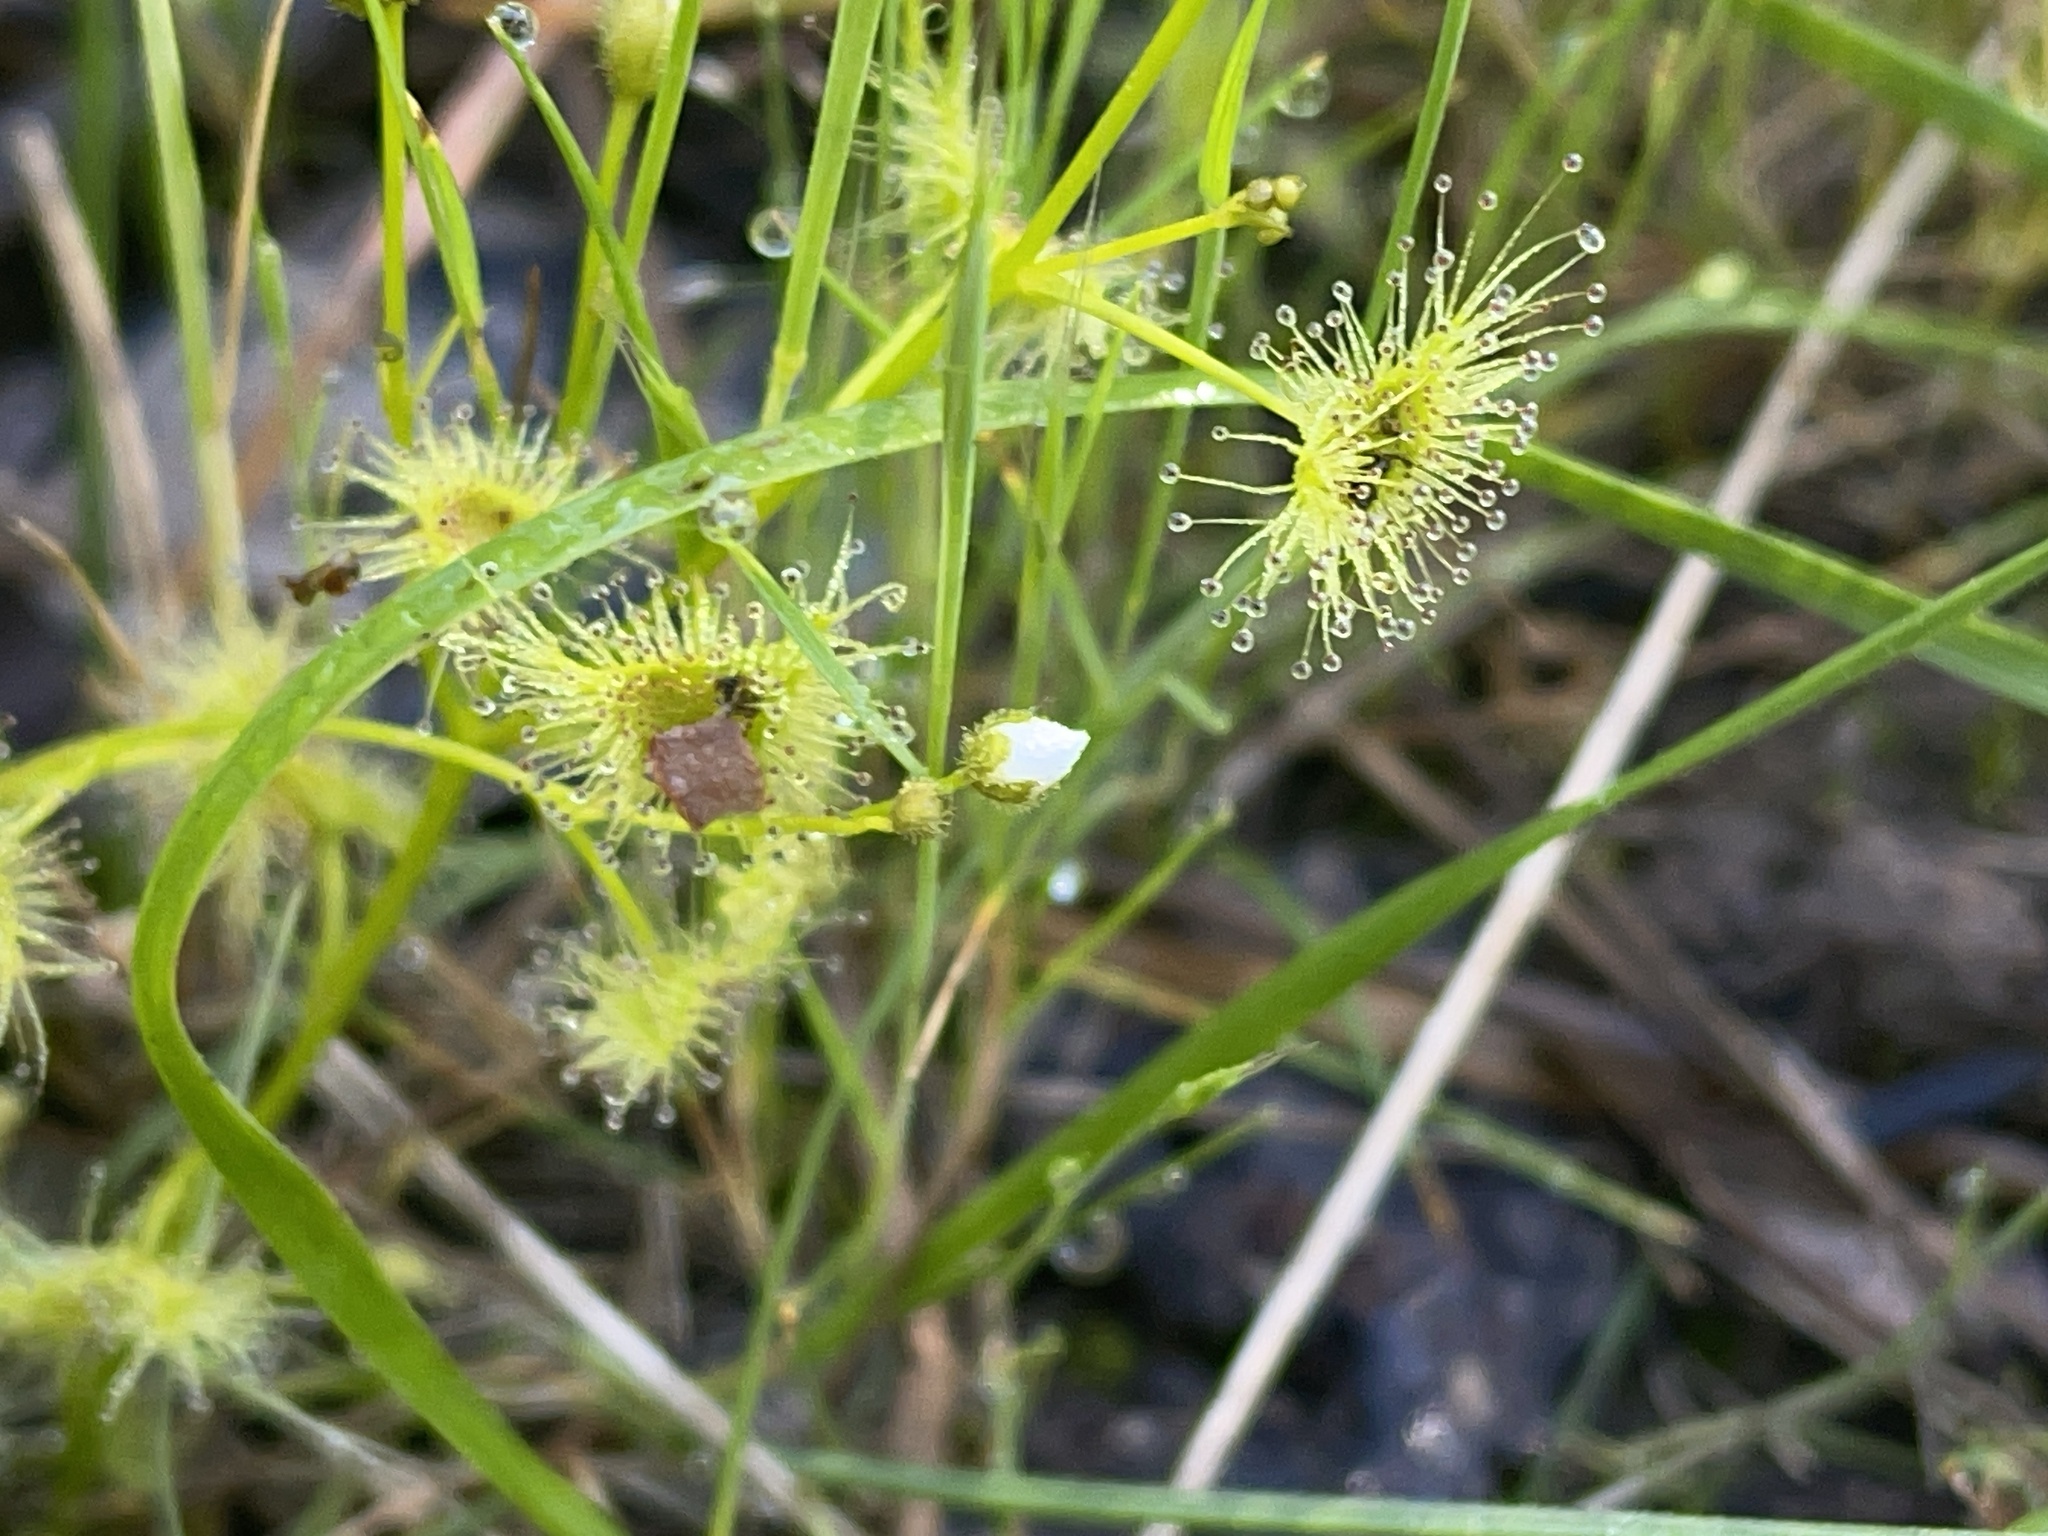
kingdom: Plantae
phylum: Tracheophyta
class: Magnoliopsida
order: Caryophyllales
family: Droseraceae
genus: Drosera
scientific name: Drosera hookeri
